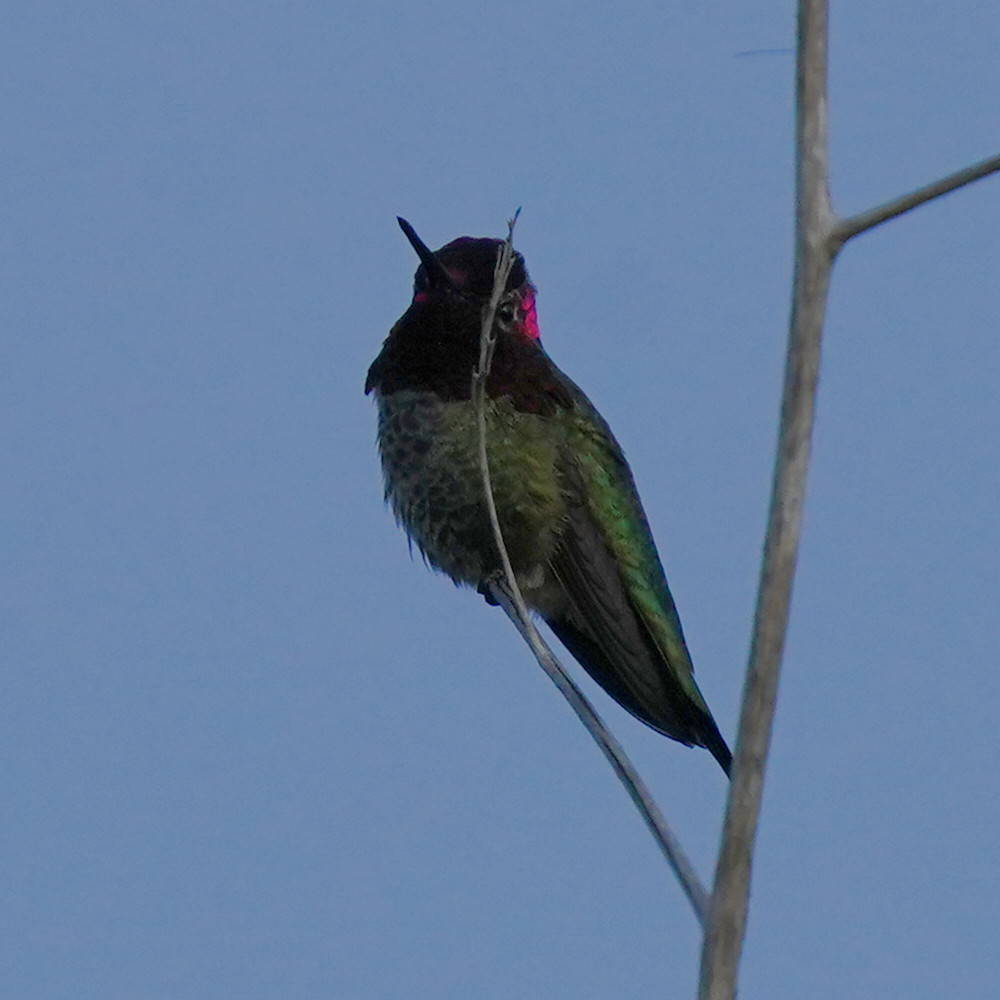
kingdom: Animalia
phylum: Chordata
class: Aves
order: Apodiformes
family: Trochilidae
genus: Calypte
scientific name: Calypte anna
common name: Anna's hummingbird
